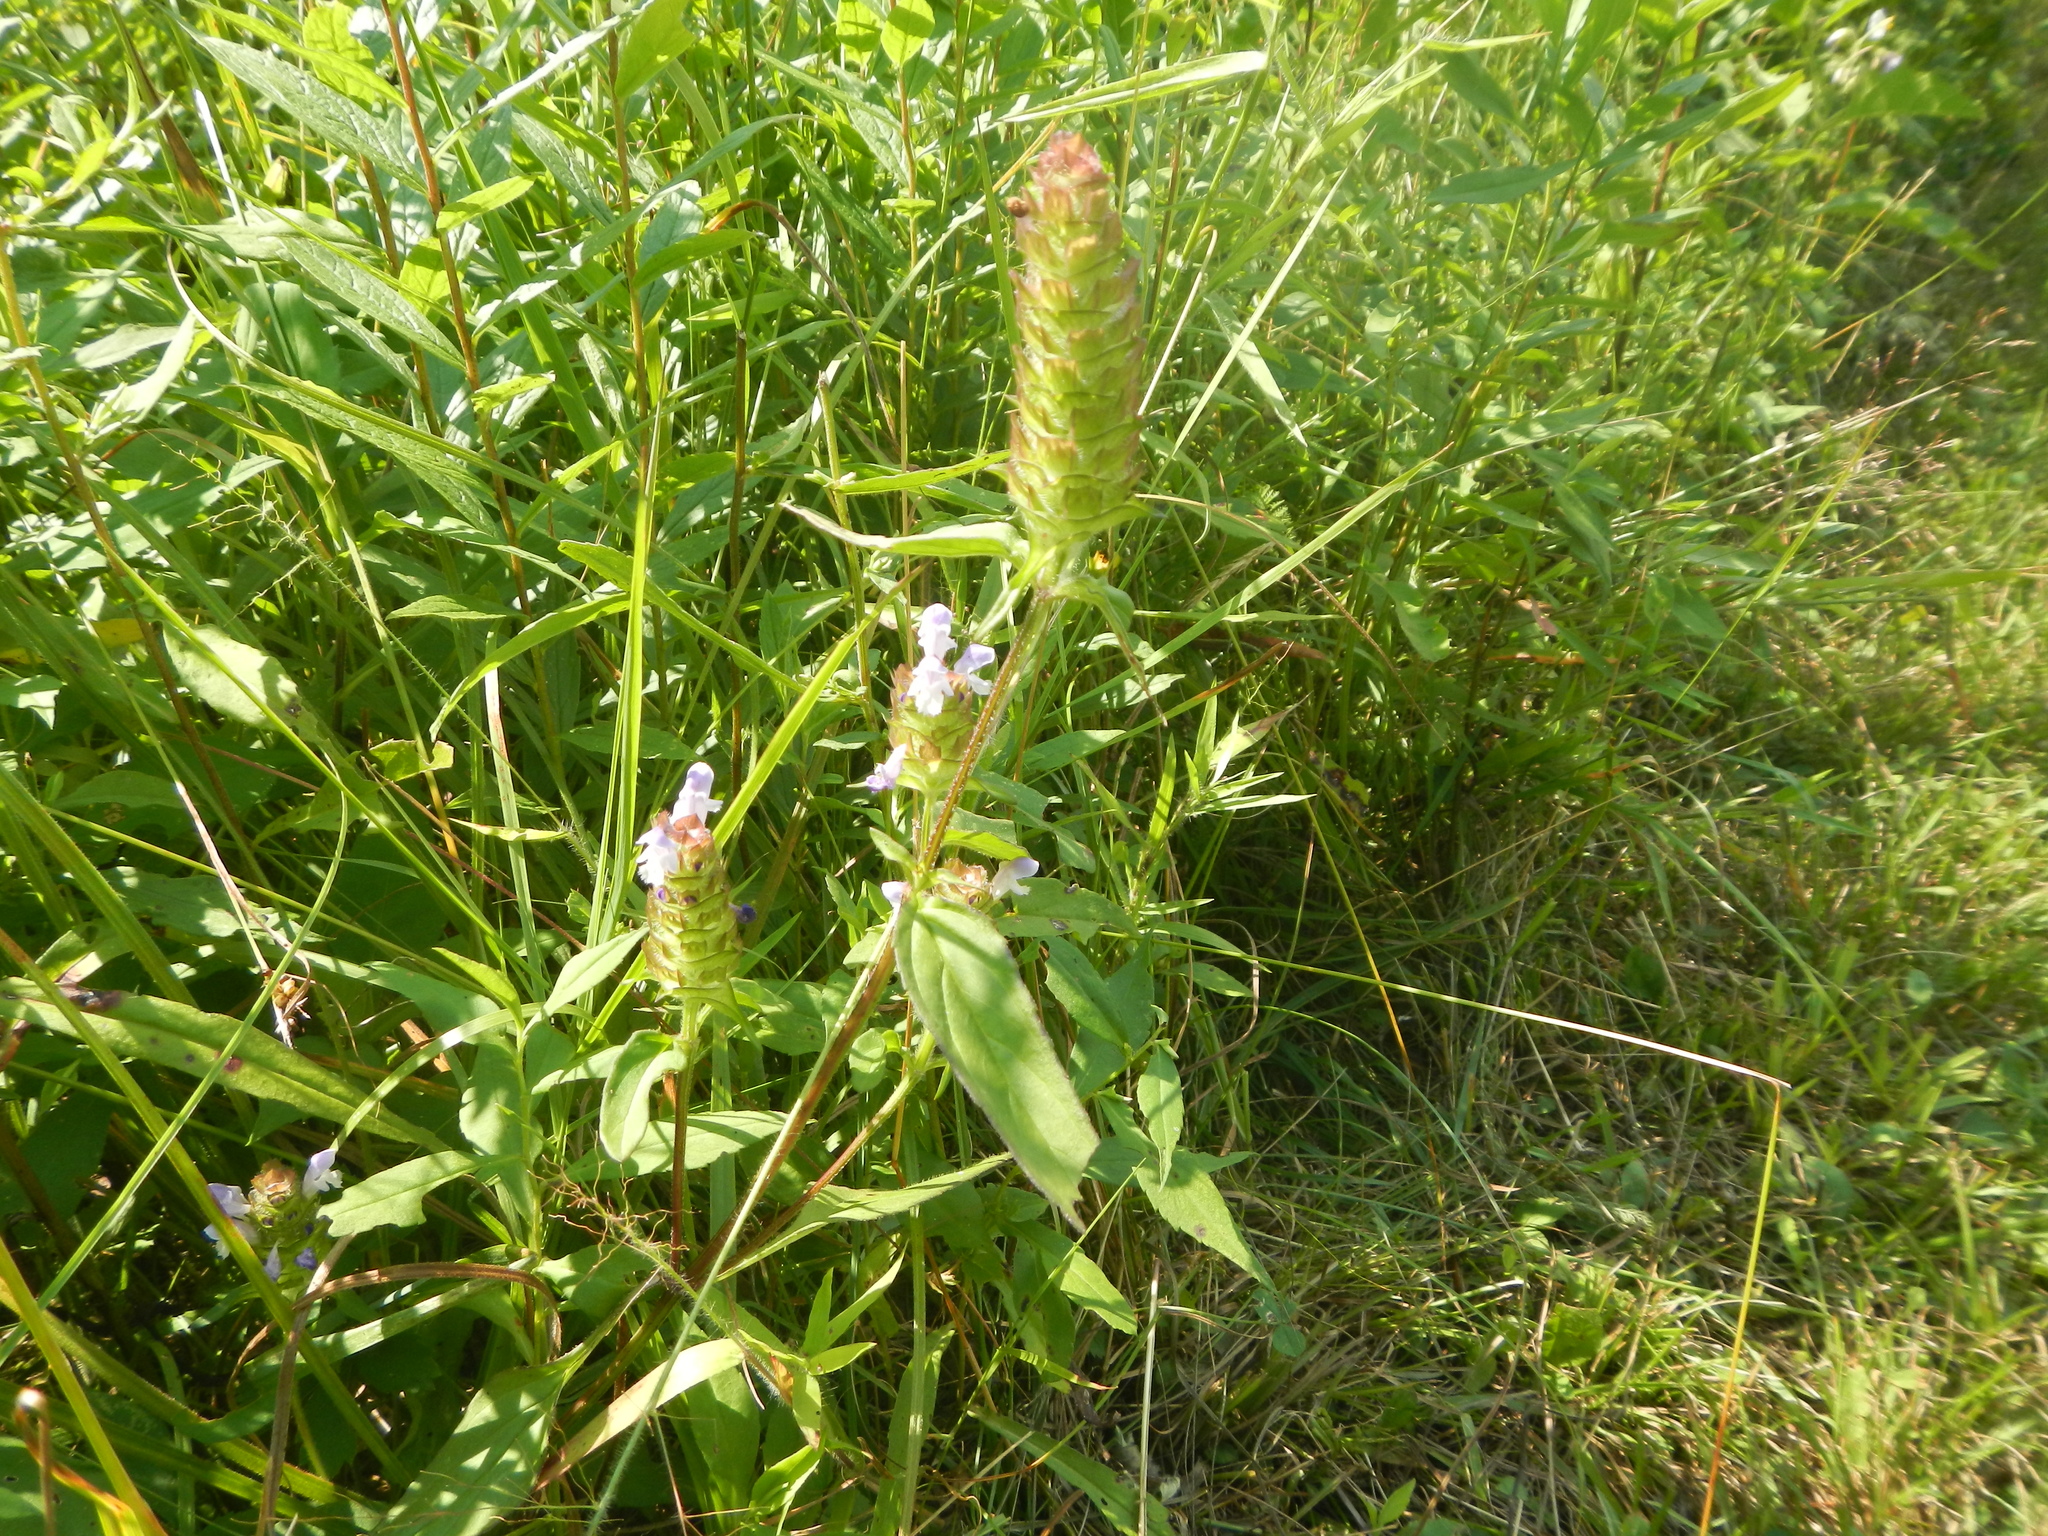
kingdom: Plantae
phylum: Tracheophyta
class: Magnoliopsida
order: Lamiales
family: Lamiaceae
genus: Prunella
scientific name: Prunella vulgaris
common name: Heal-all
